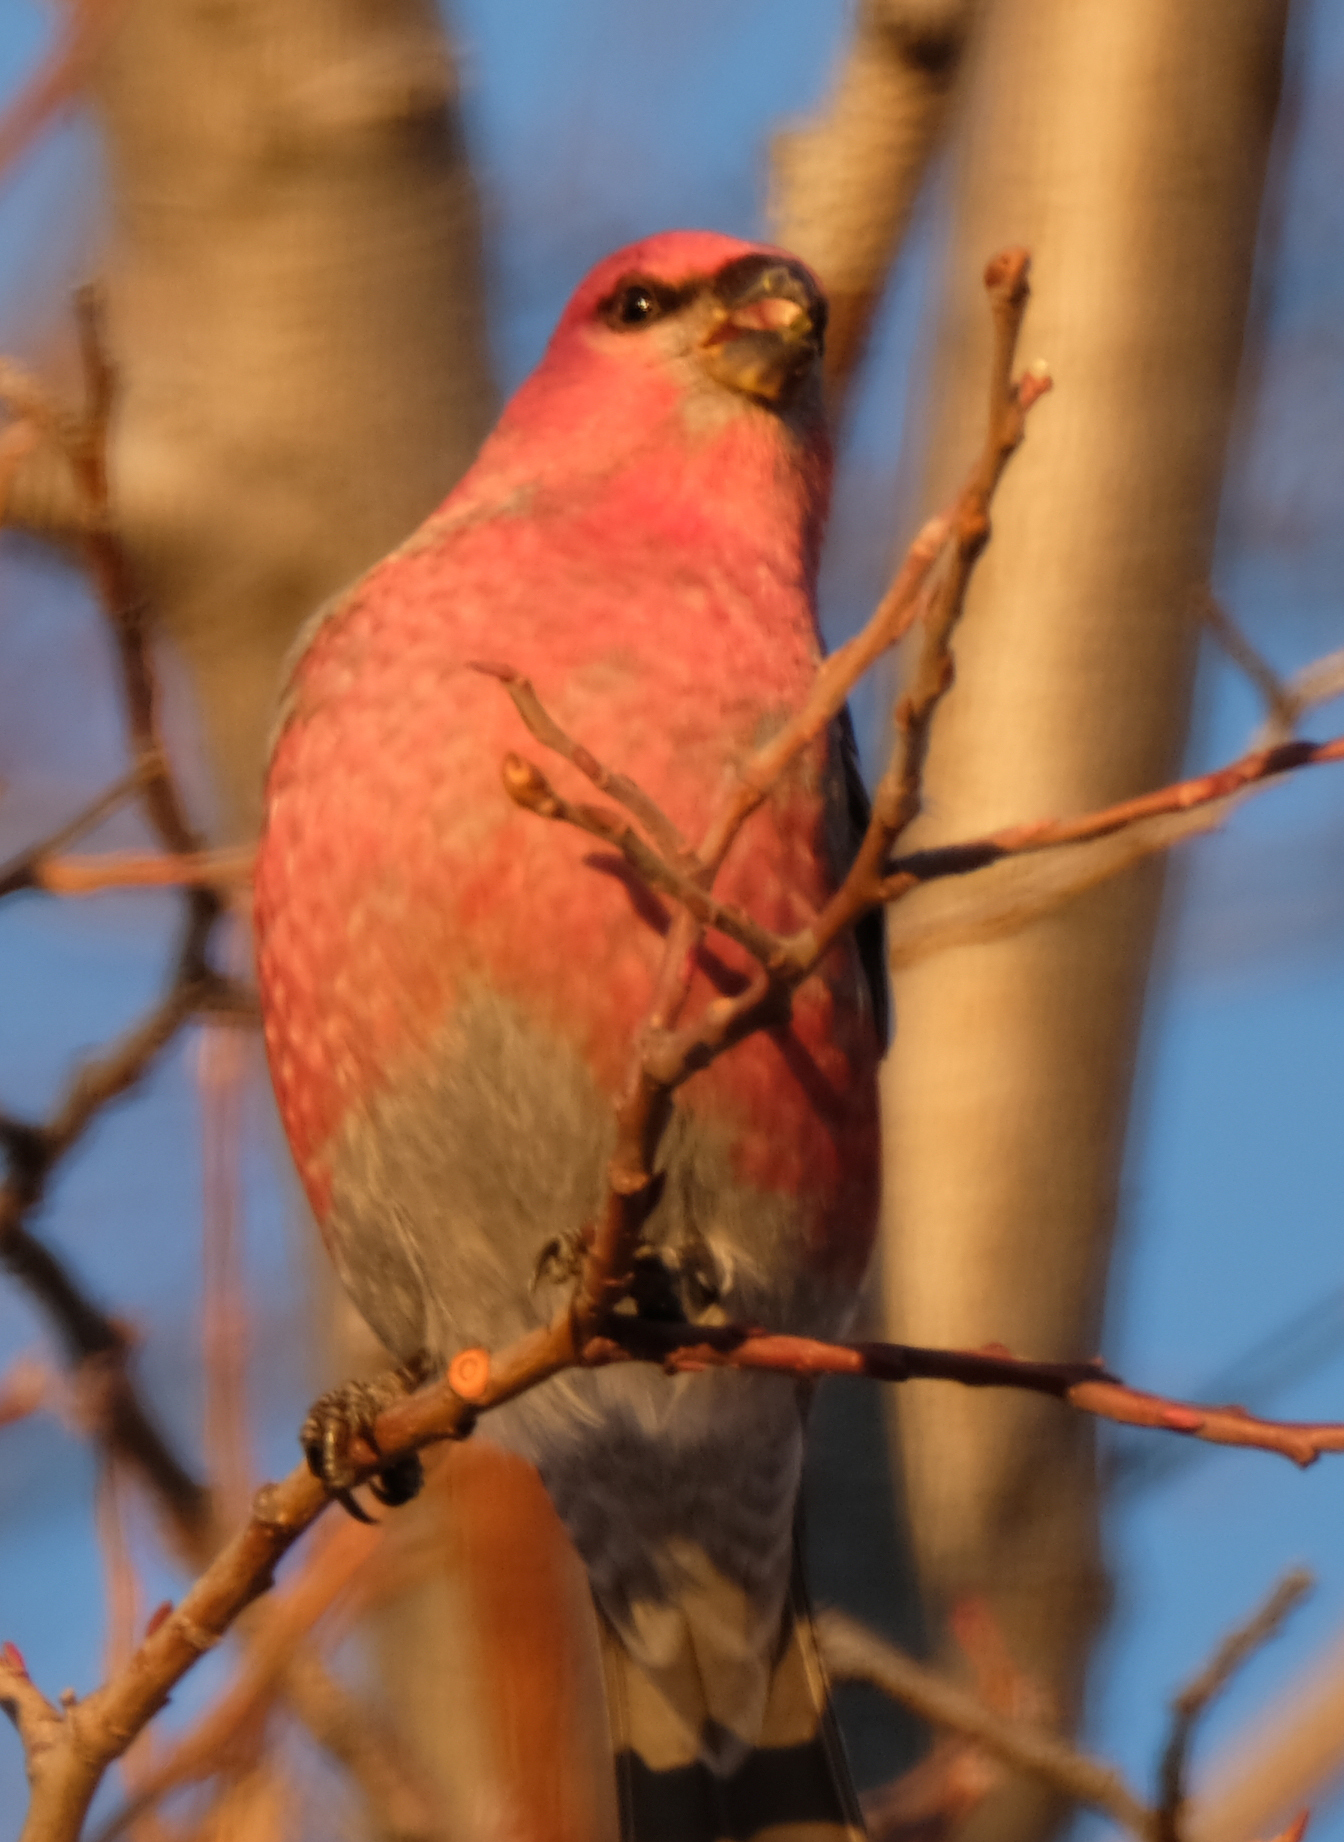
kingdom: Animalia
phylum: Chordata
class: Aves
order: Passeriformes
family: Fringillidae
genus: Pinicola
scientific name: Pinicola enucleator
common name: Pine grosbeak
